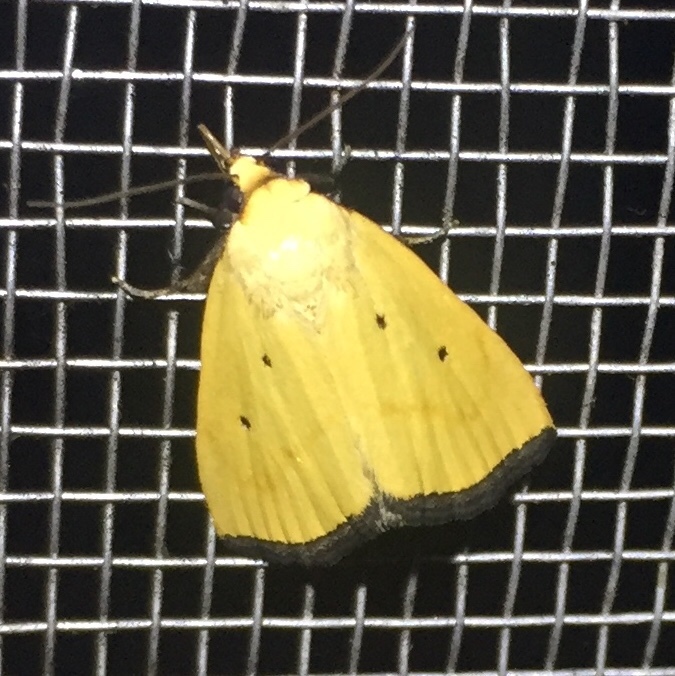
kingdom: Animalia
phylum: Arthropoda
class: Insecta
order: Lepidoptera
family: Noctuidae
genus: Marimatha
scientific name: Marimatha nigrofimbria
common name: Black-bordered lemon moth
